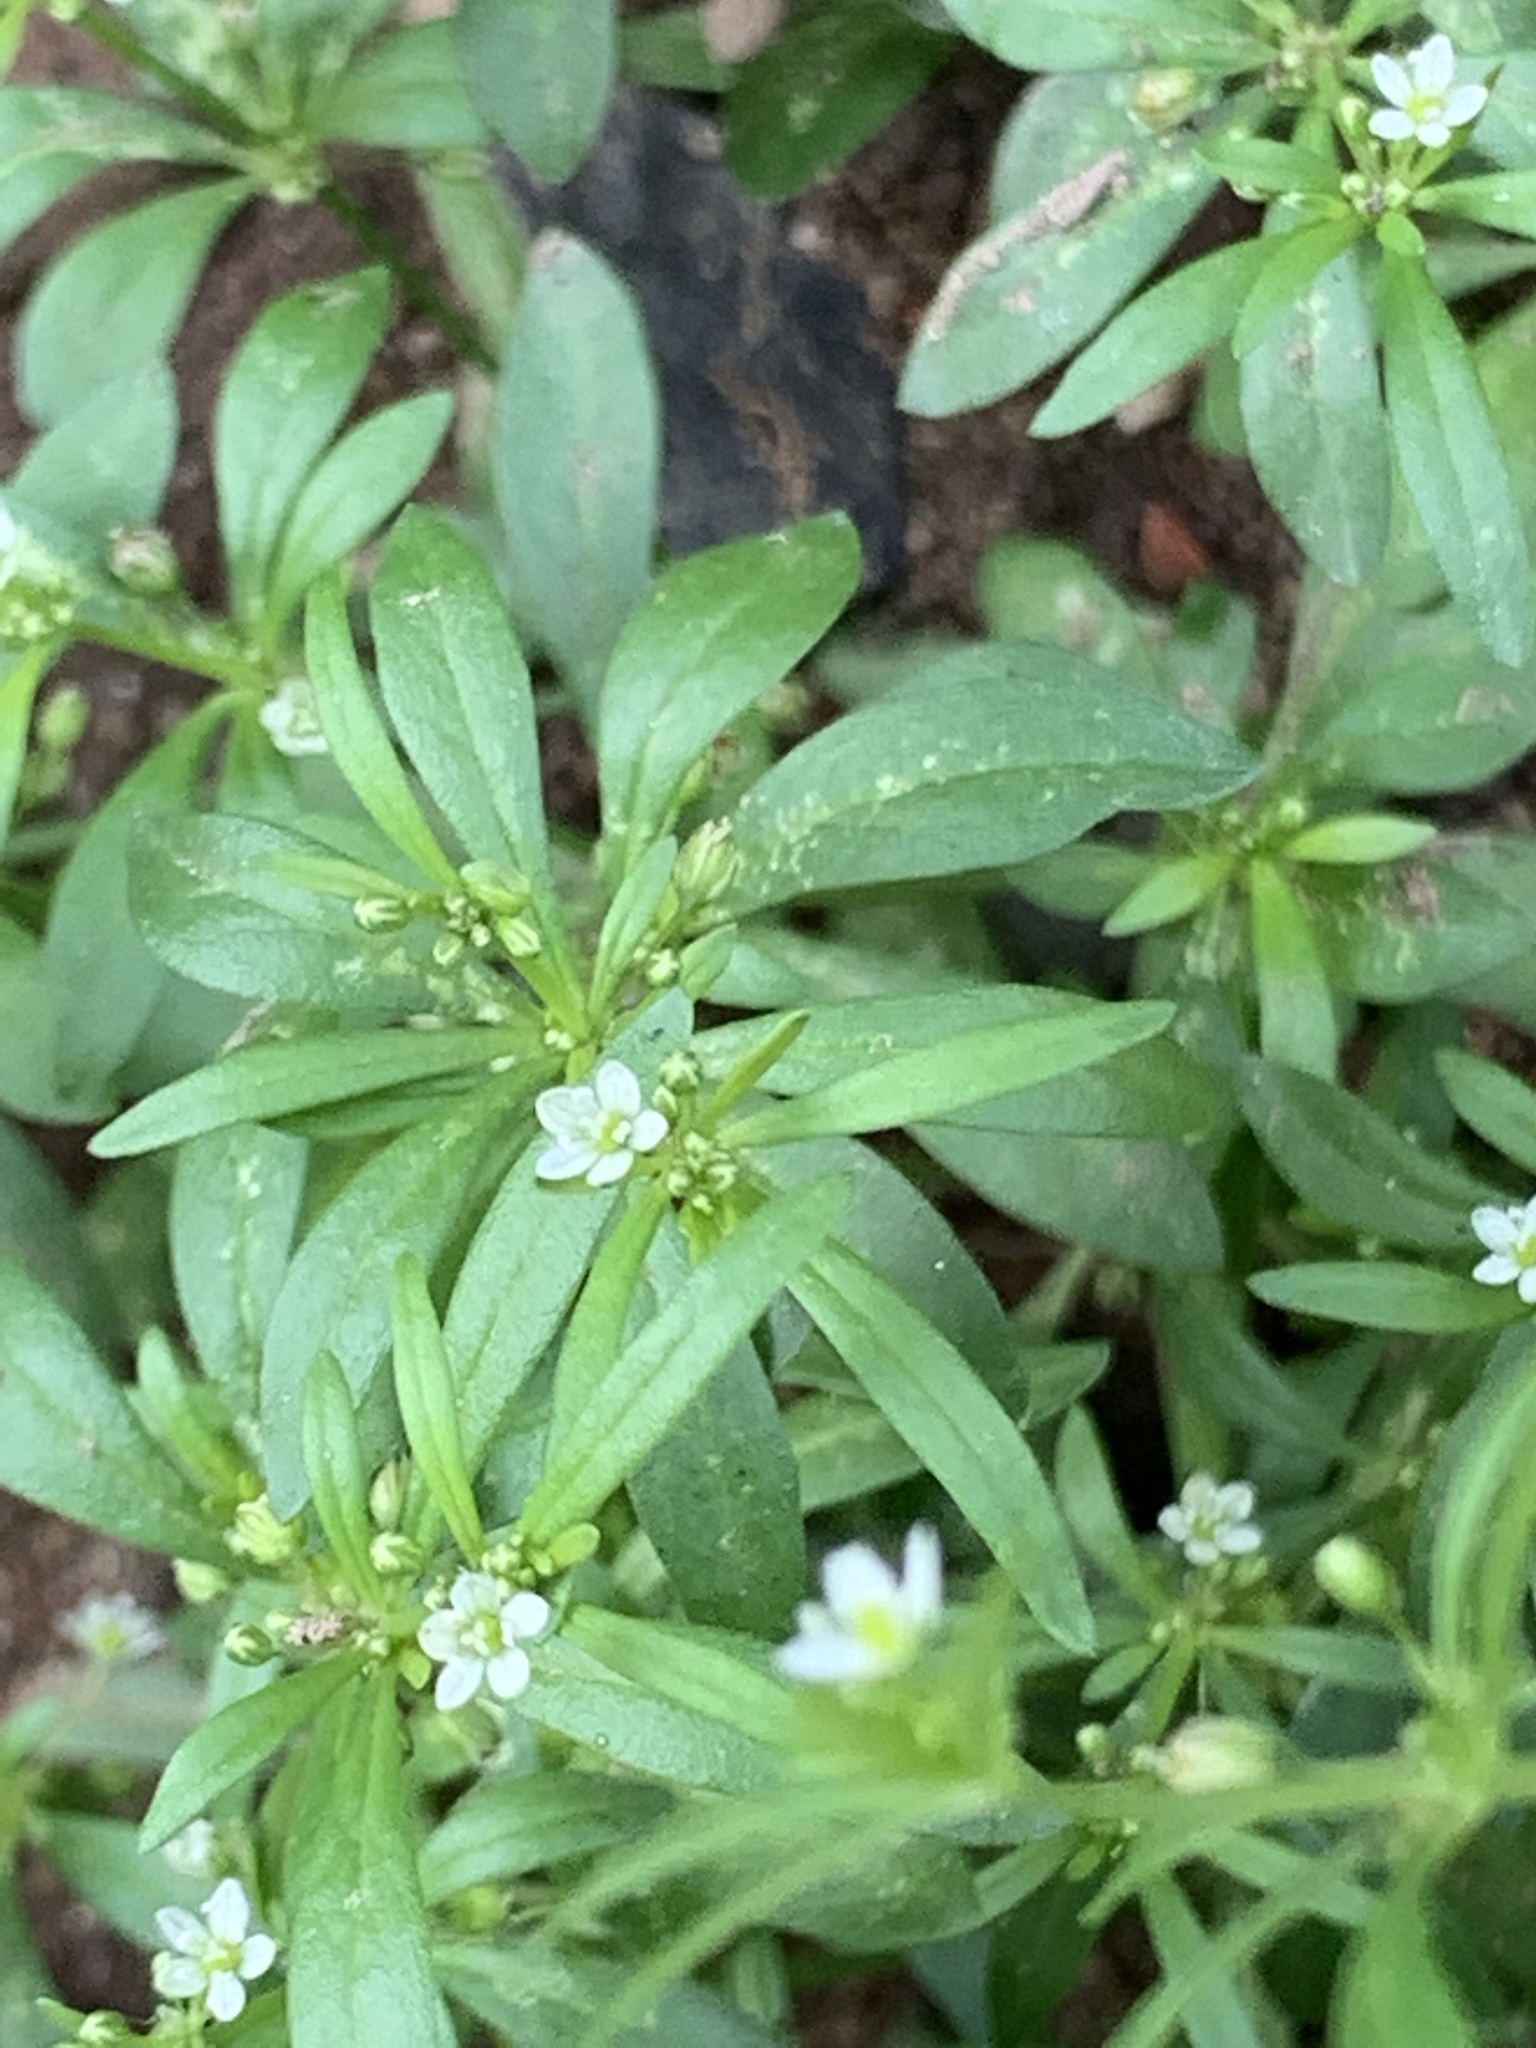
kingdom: Plantae
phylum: Tracheophyta
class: Magnoliopsida
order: Caryophyllales
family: Molluginaceae
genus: Mollugo
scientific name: Mollugo verticillata
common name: Green carpetweed
